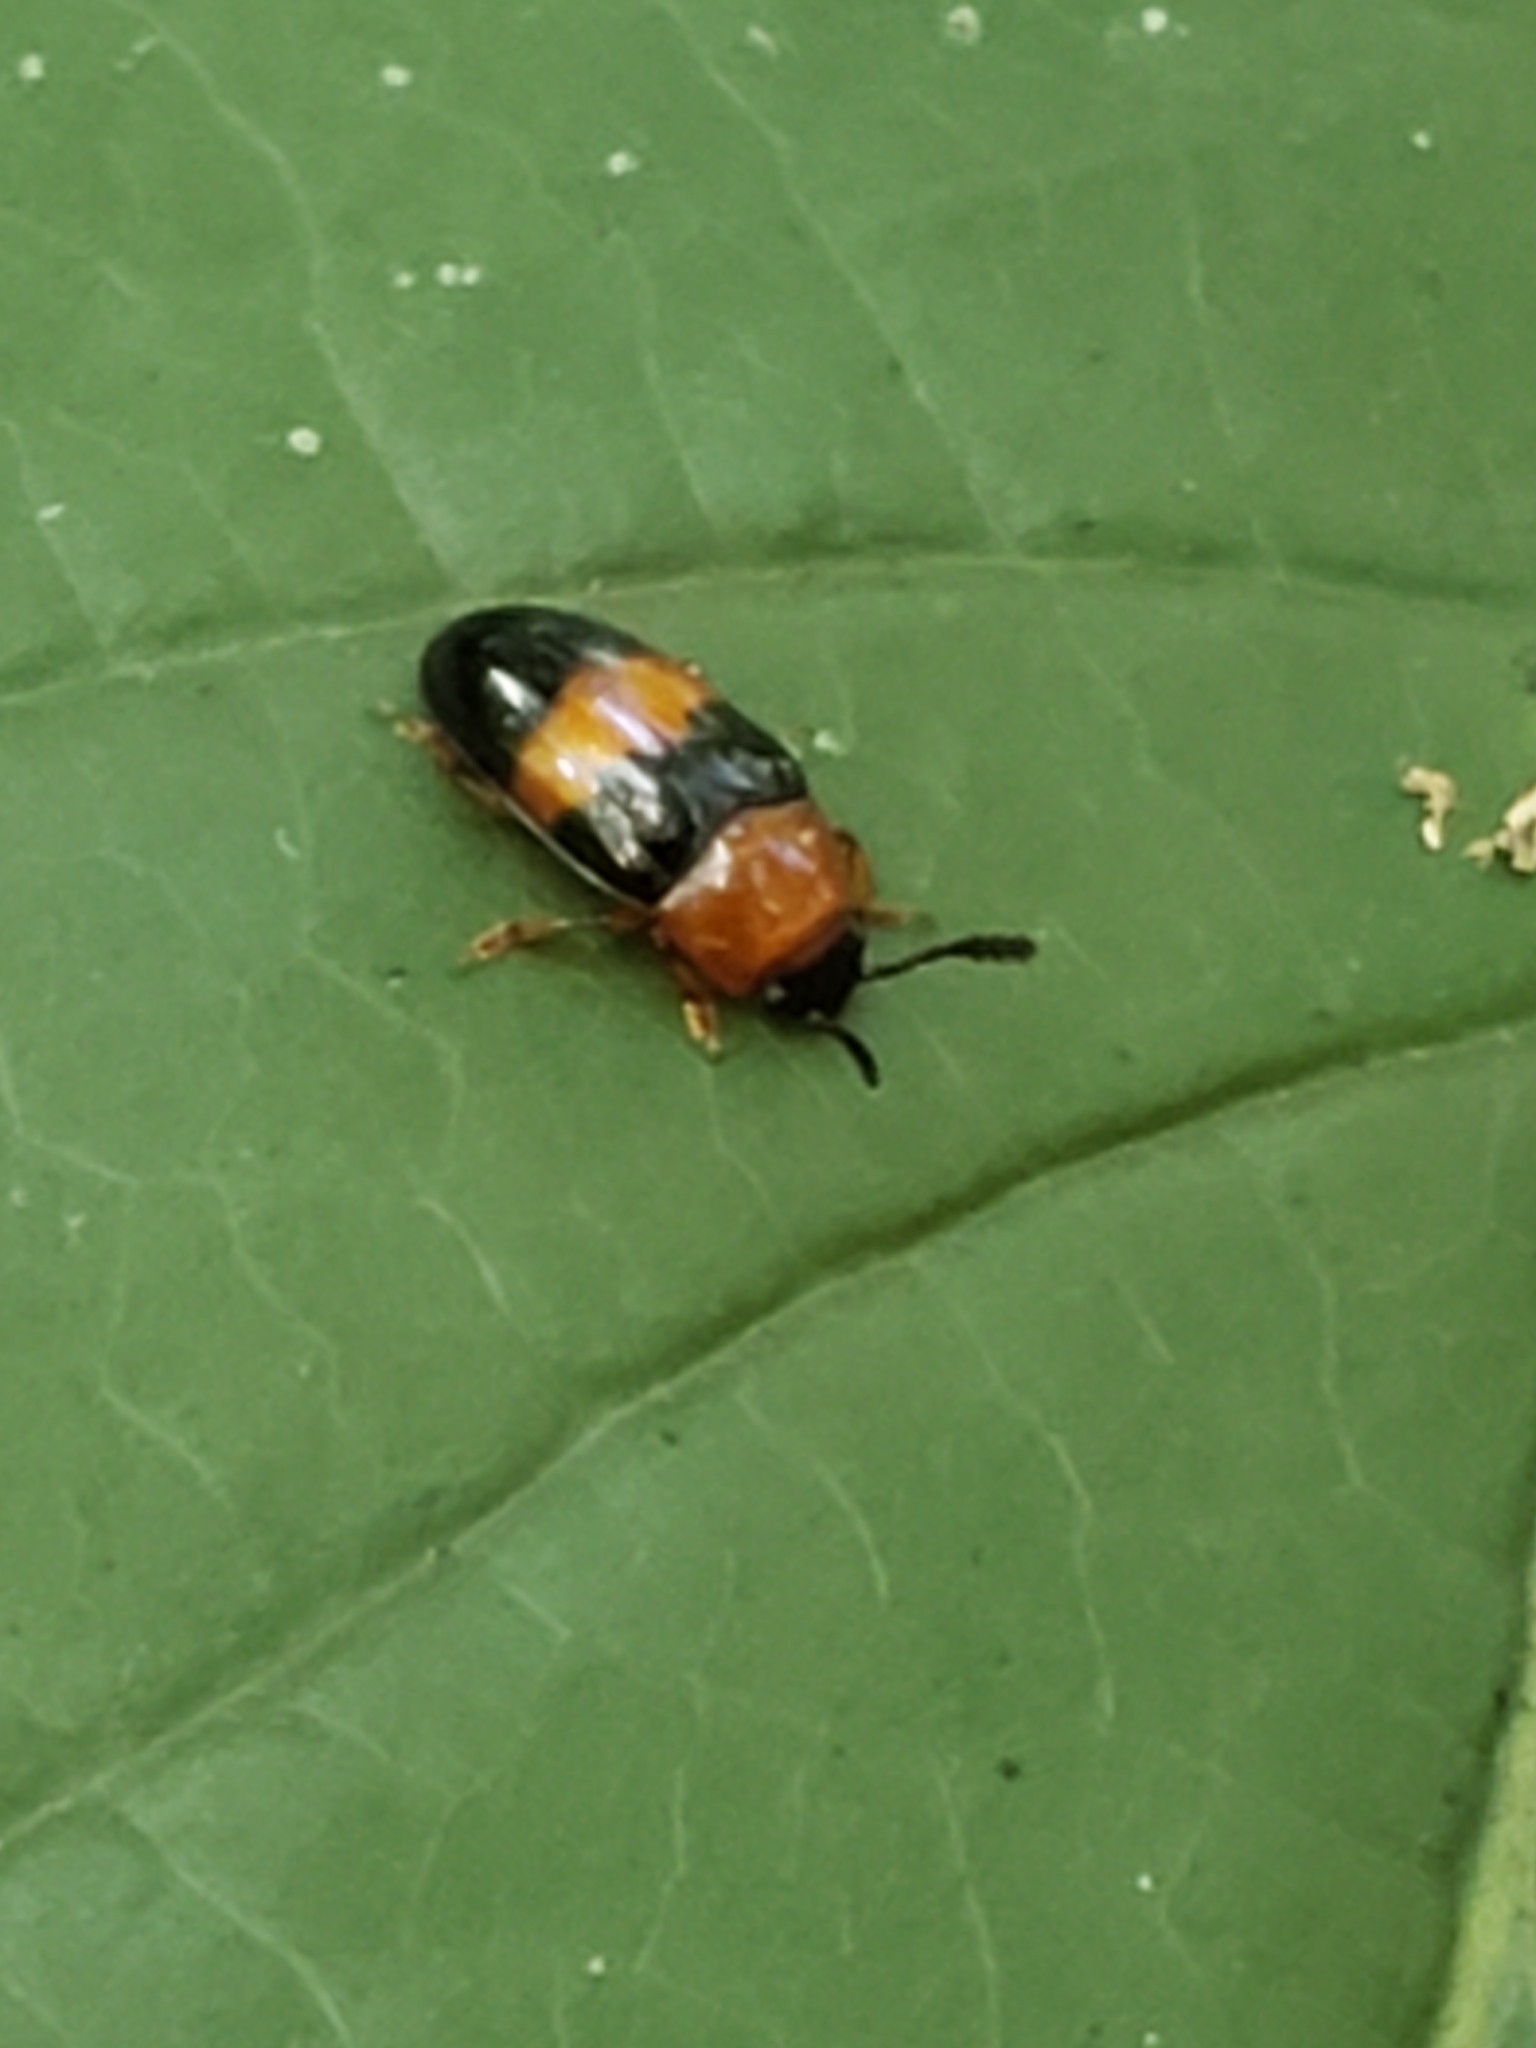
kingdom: Animalia
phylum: Arthropoda
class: Insecta
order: Coleoptera
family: Erotylidae
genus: Triplax
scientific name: Triplax festiva
